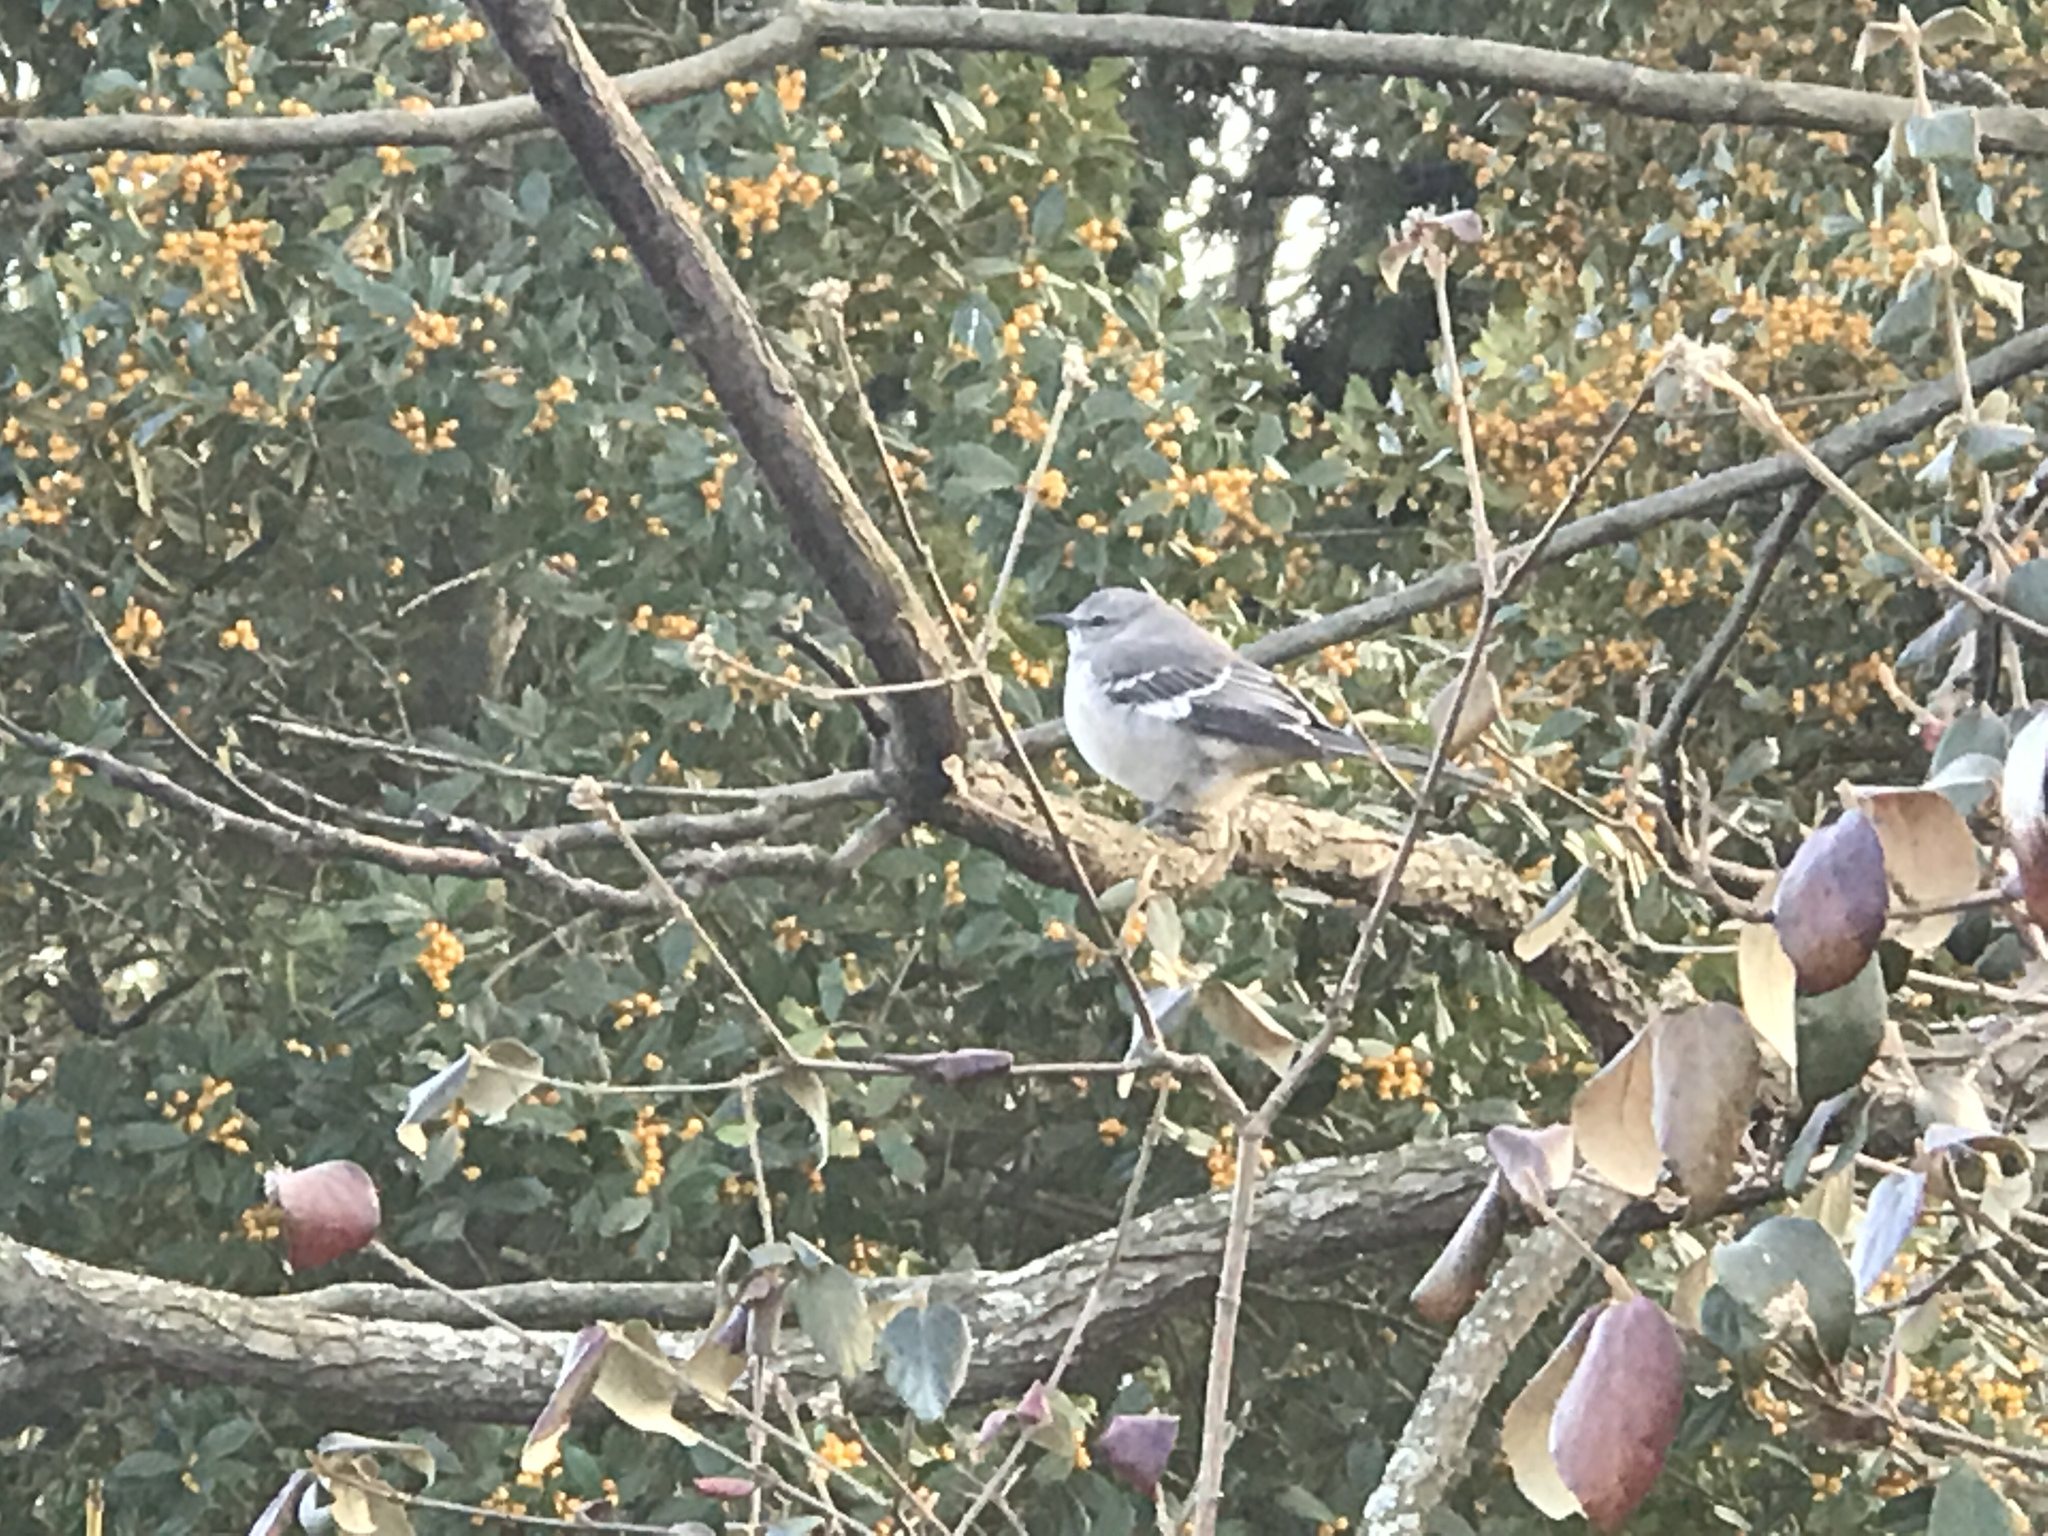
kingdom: Animalia
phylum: Chordata
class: Aves
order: Passeriformes
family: Mimidae
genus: Mimus
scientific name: Mimus polyglottos
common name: Northern mockingbird
